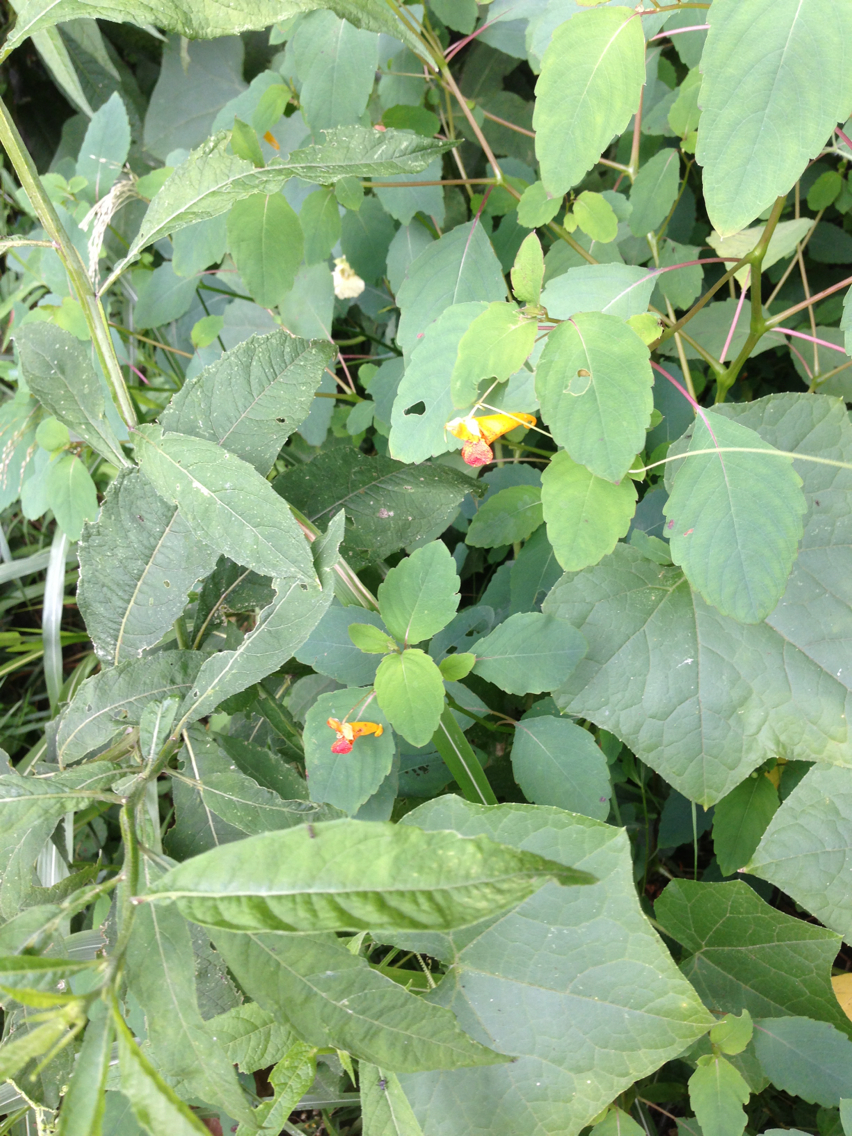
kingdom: Plantae
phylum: Tracheophyta
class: Magnoliopsida
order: Ericales
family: Balsaminaceae
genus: Impatiens
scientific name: Impatiens capensis
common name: Orange balsam
